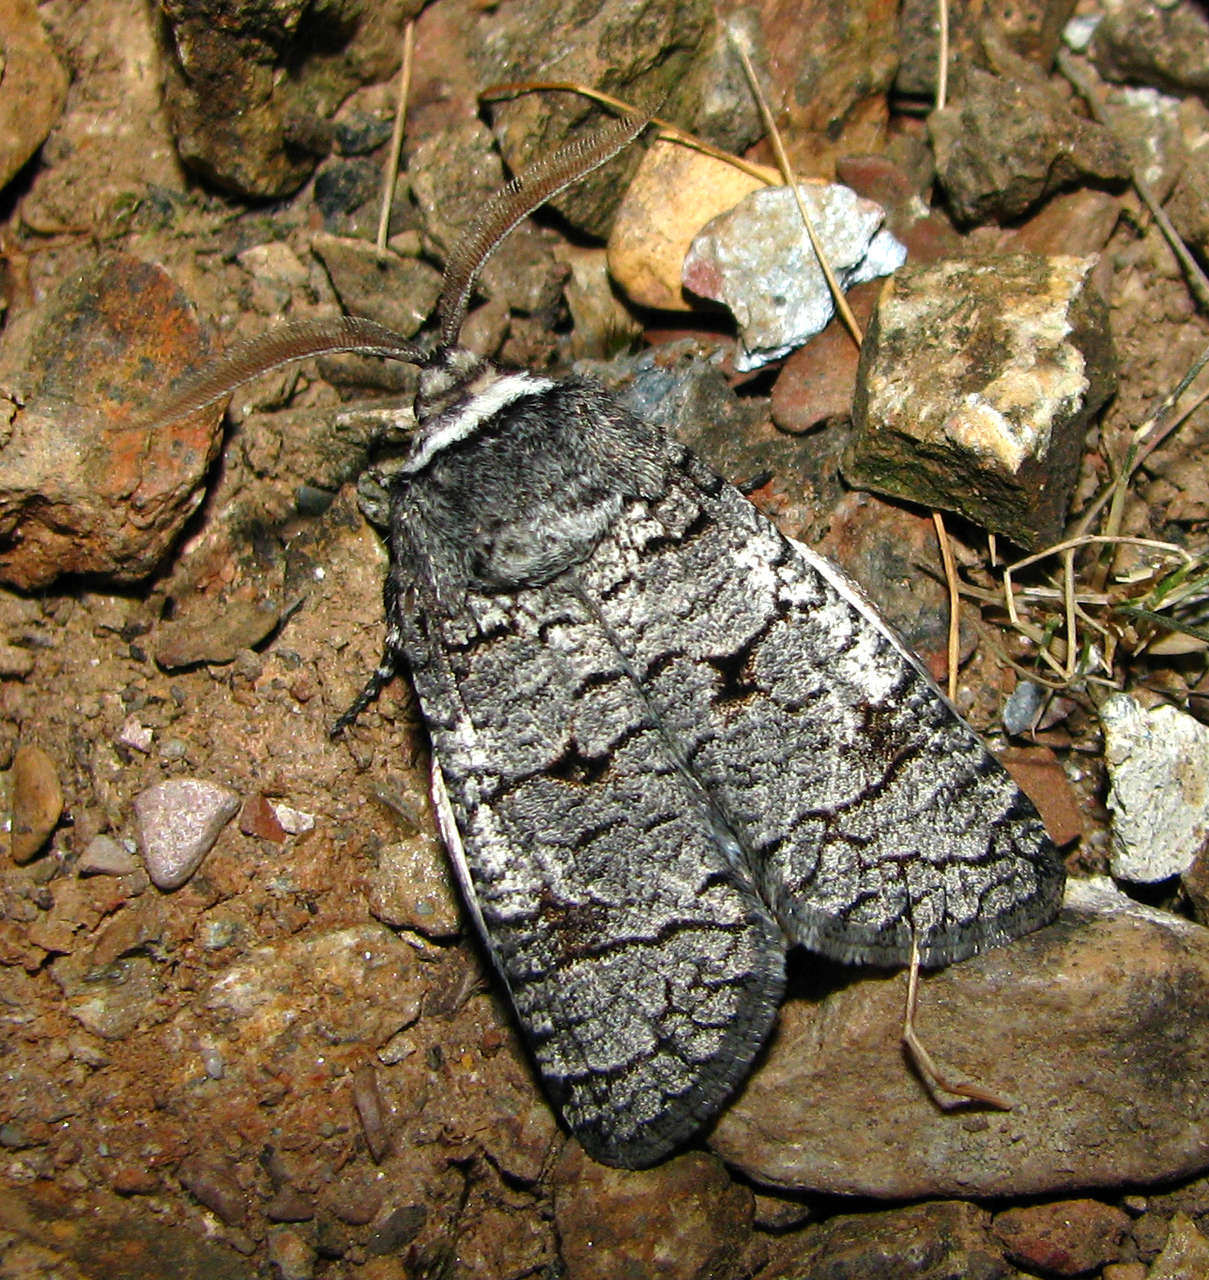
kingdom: Animalia
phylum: Arthropoda
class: Insecta
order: Lepidoptera
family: Cossidae
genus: Zyganisus
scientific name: Zyganisus propedia
